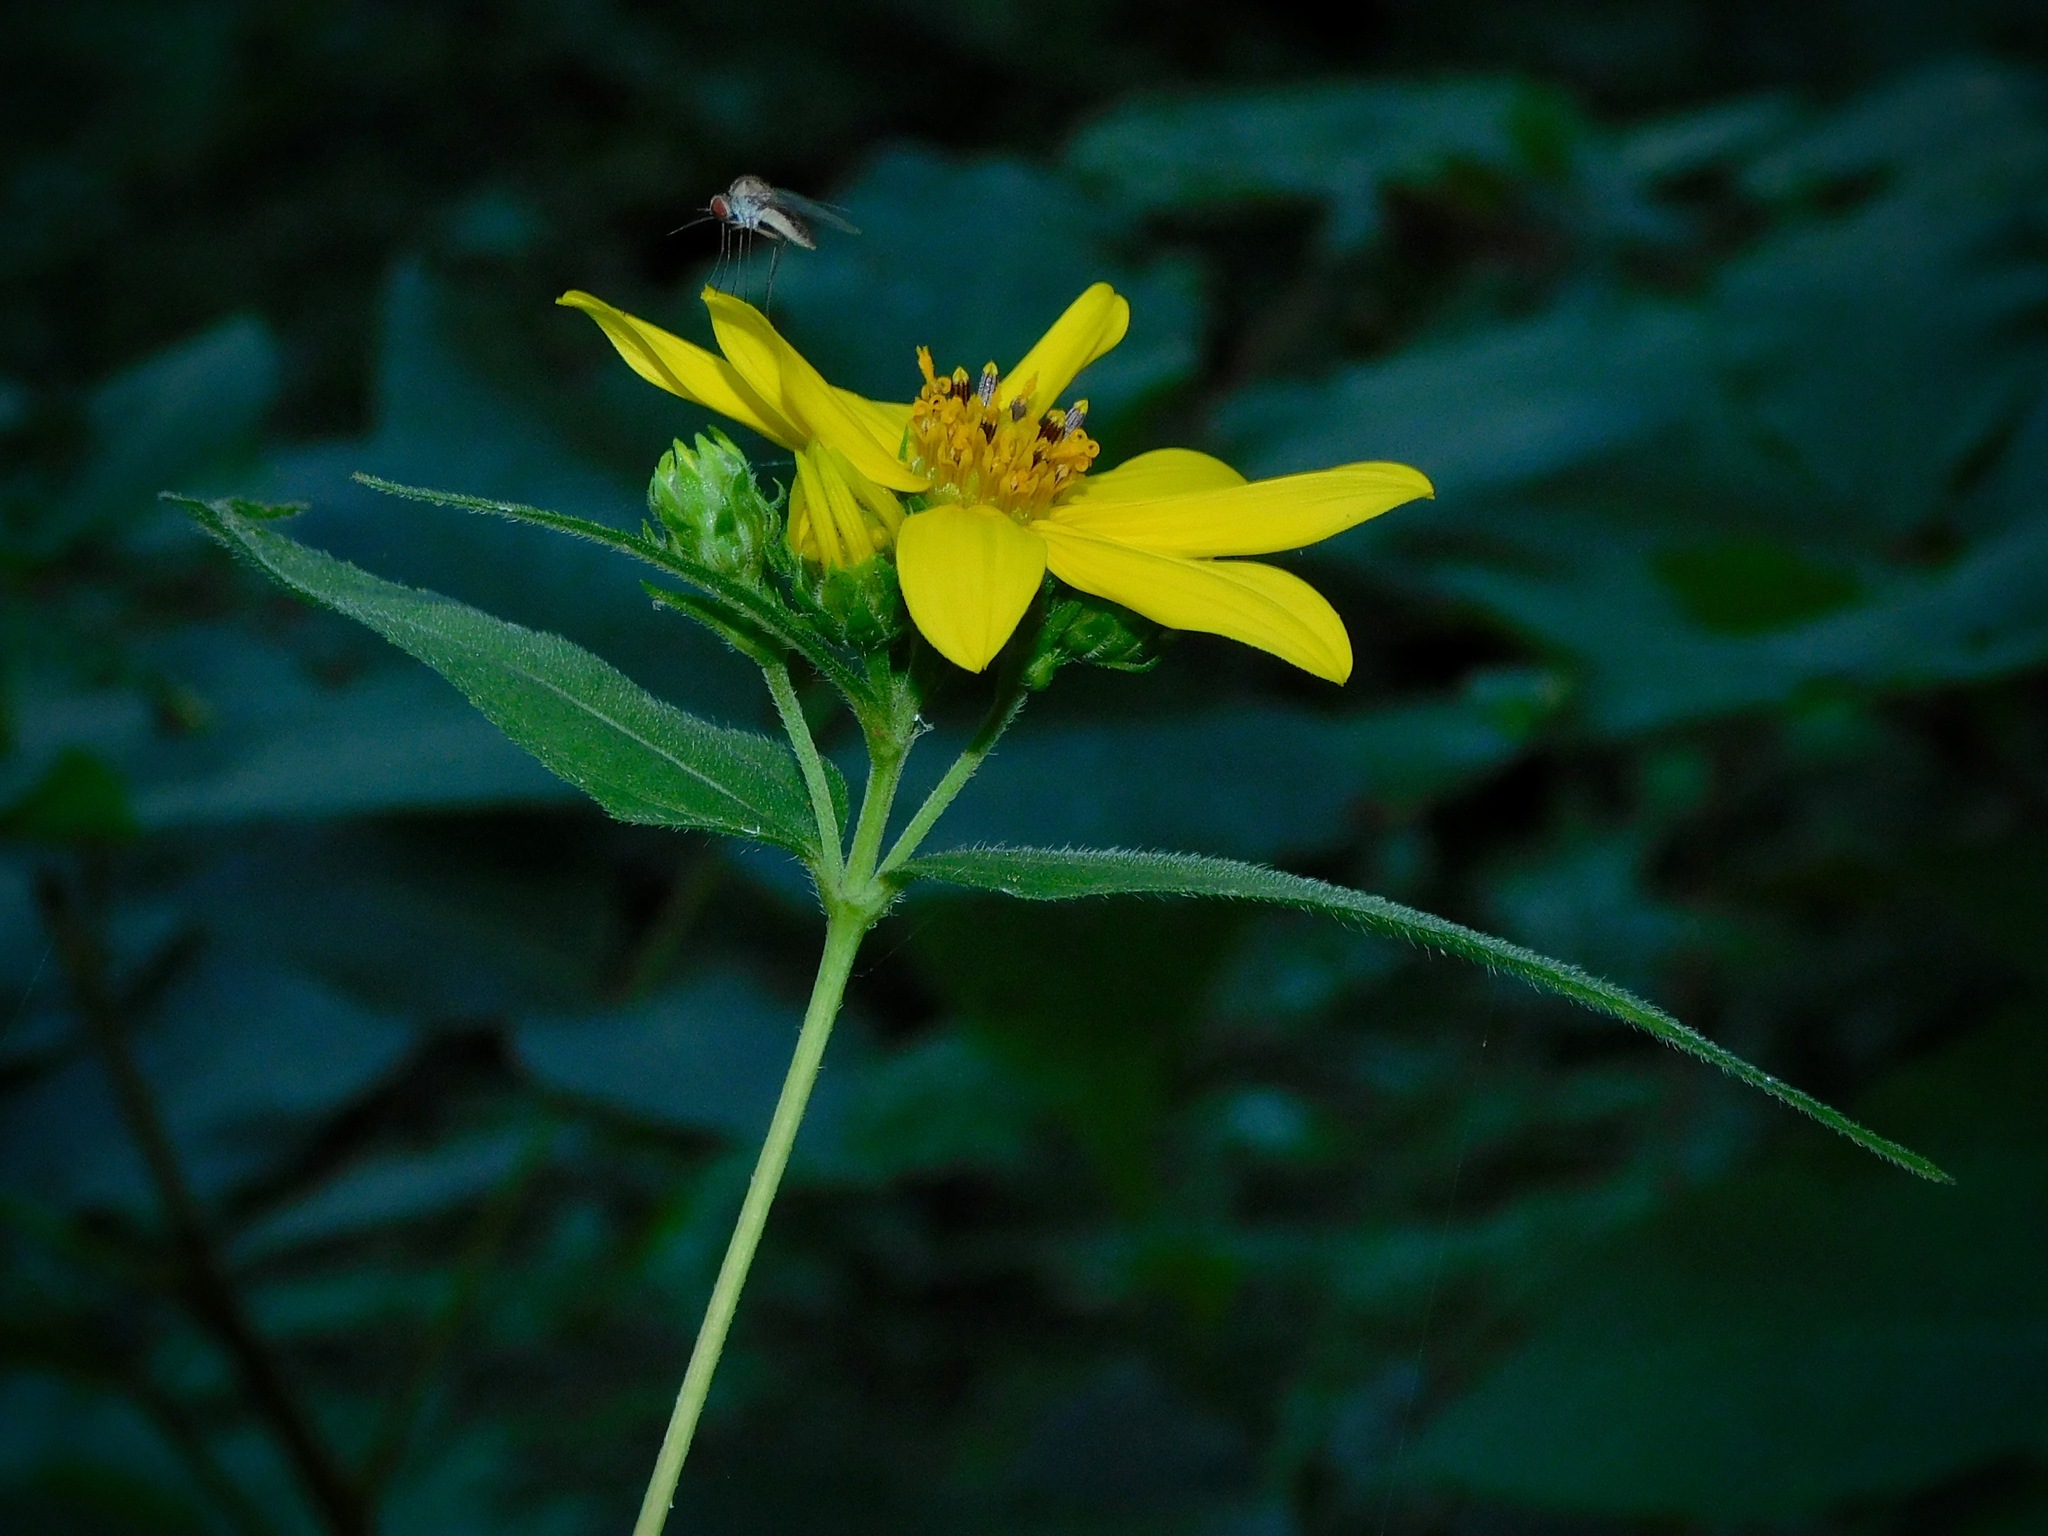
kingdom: Plantae
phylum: Tracheophyta
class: Magnoliopsida
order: Asterales
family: Asteraceae
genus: Helianthus
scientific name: Helianthus divaricatus
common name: Divergent sunflower
